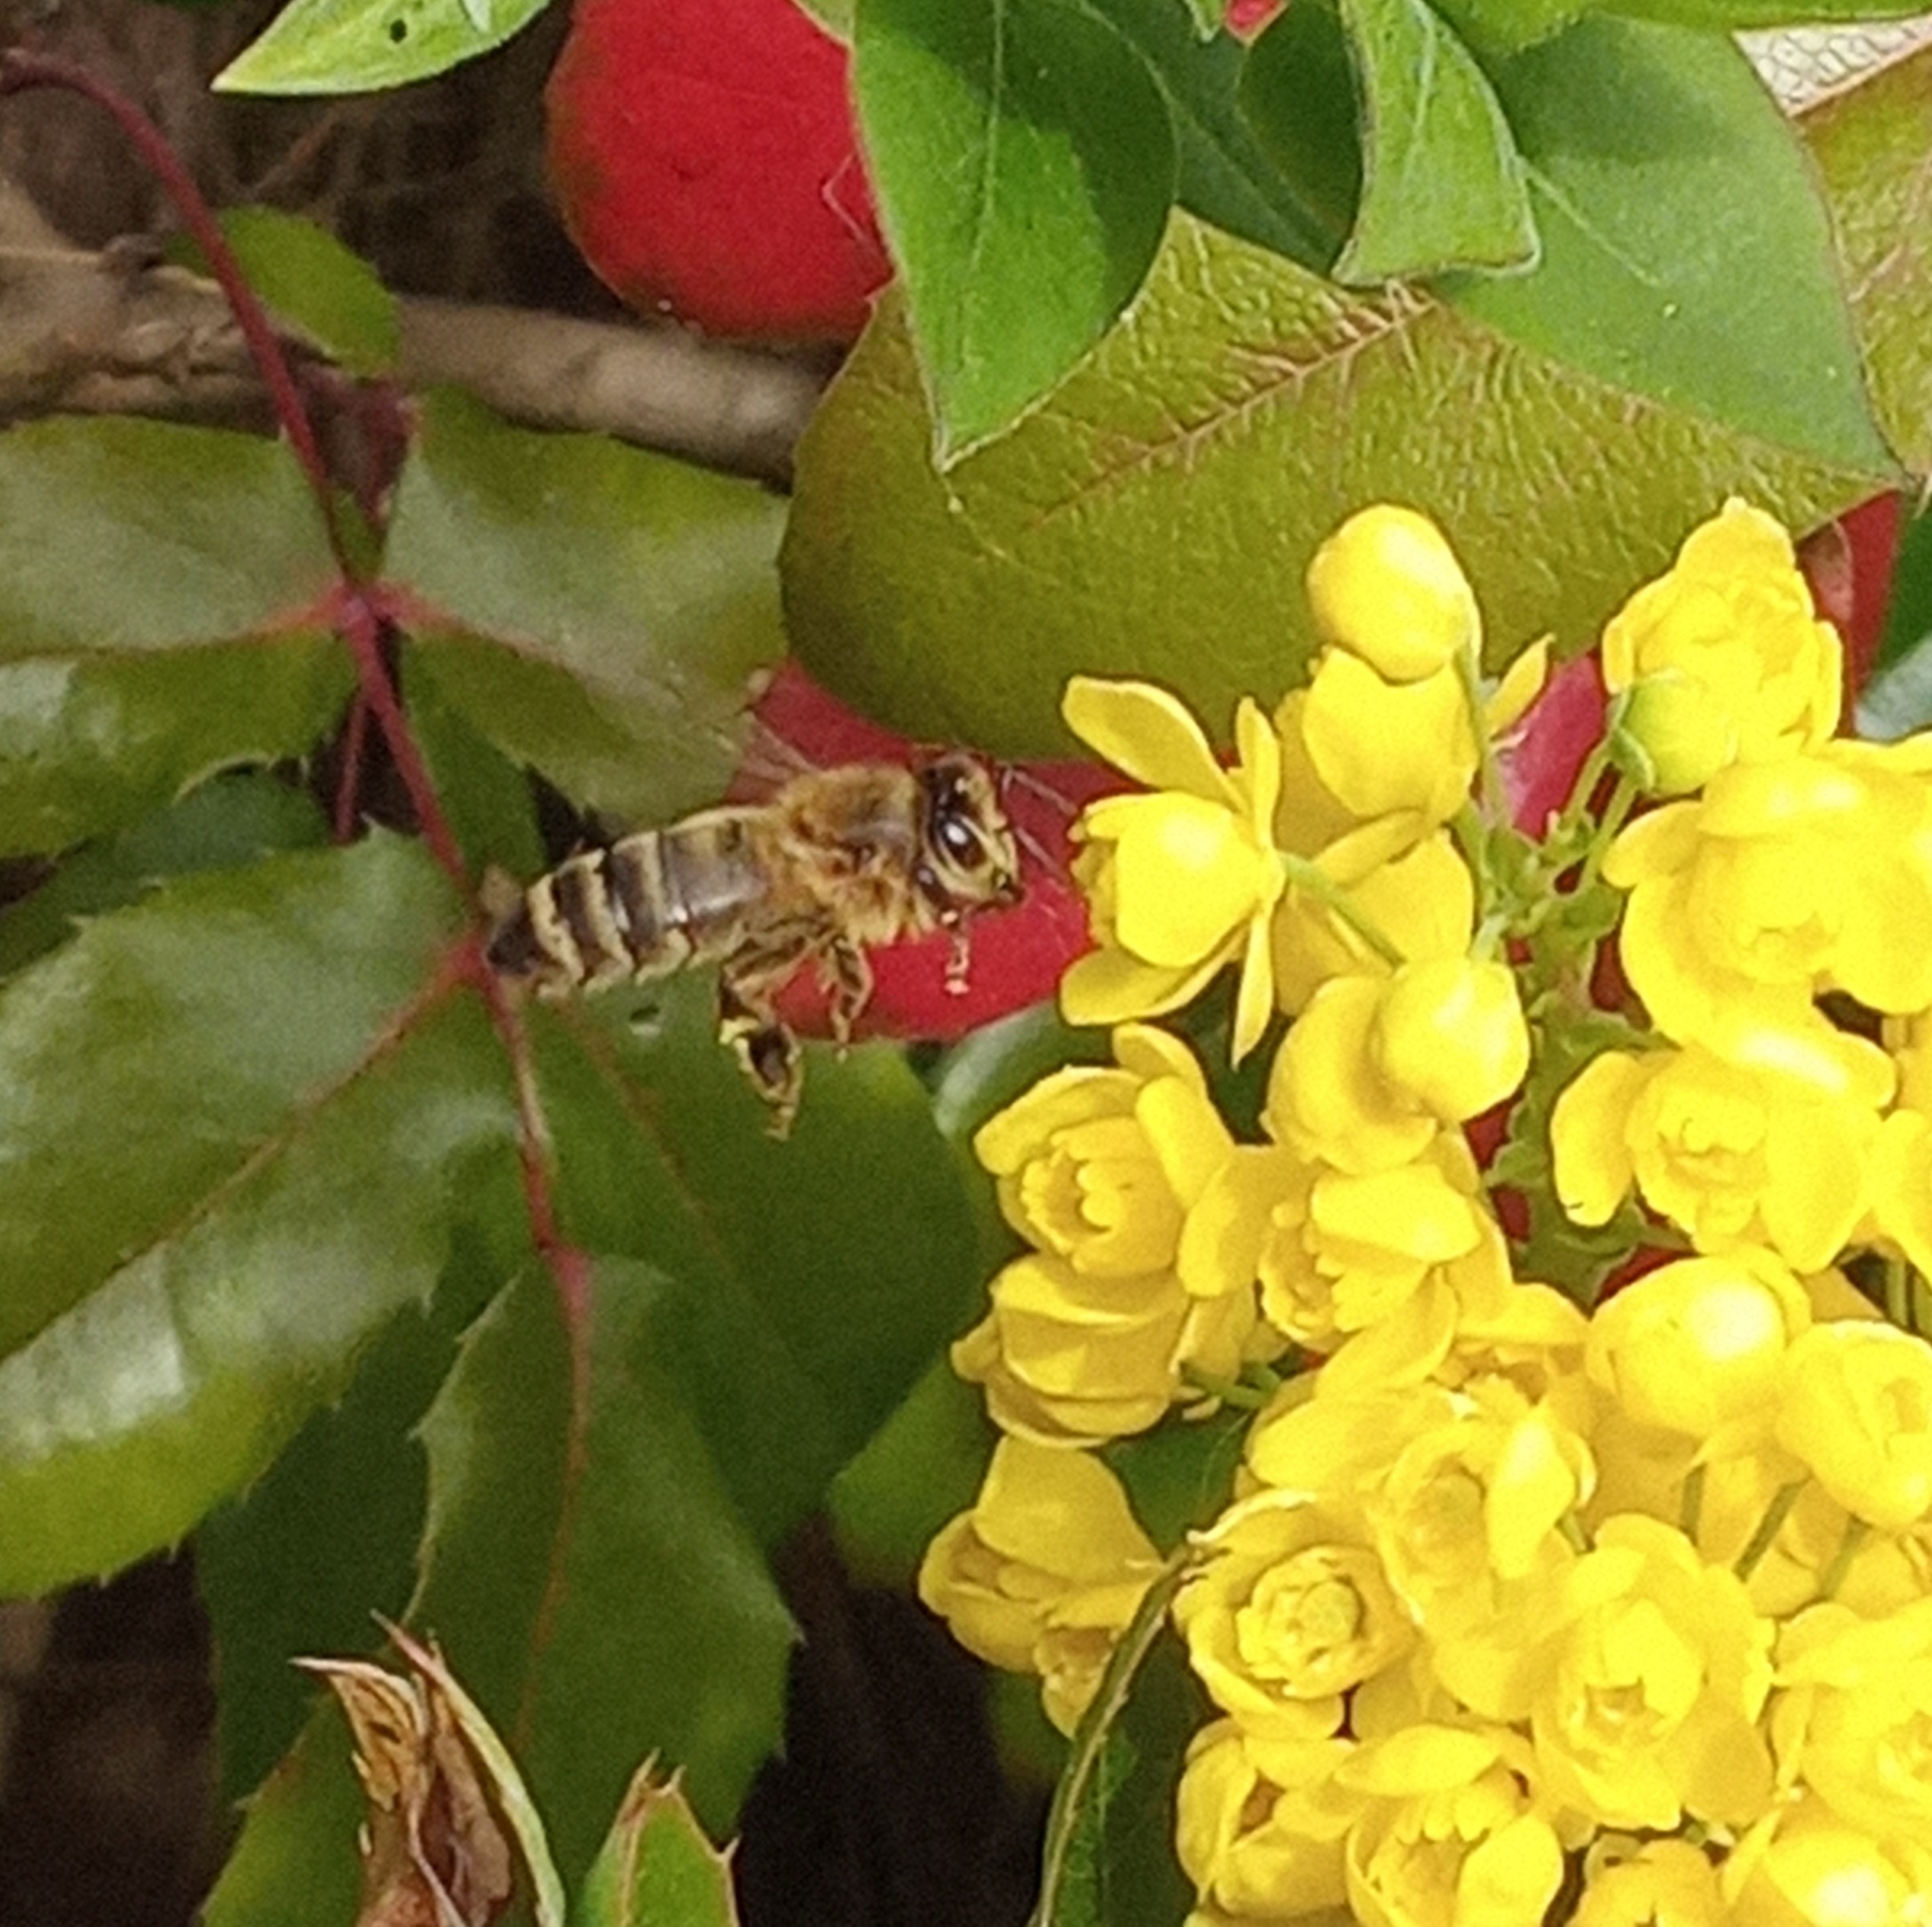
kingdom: Animalia
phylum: Arthropoda
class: Insecta
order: Hymenoptera
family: Apidae
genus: Apis
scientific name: Apis mellifera
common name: Honey bee
